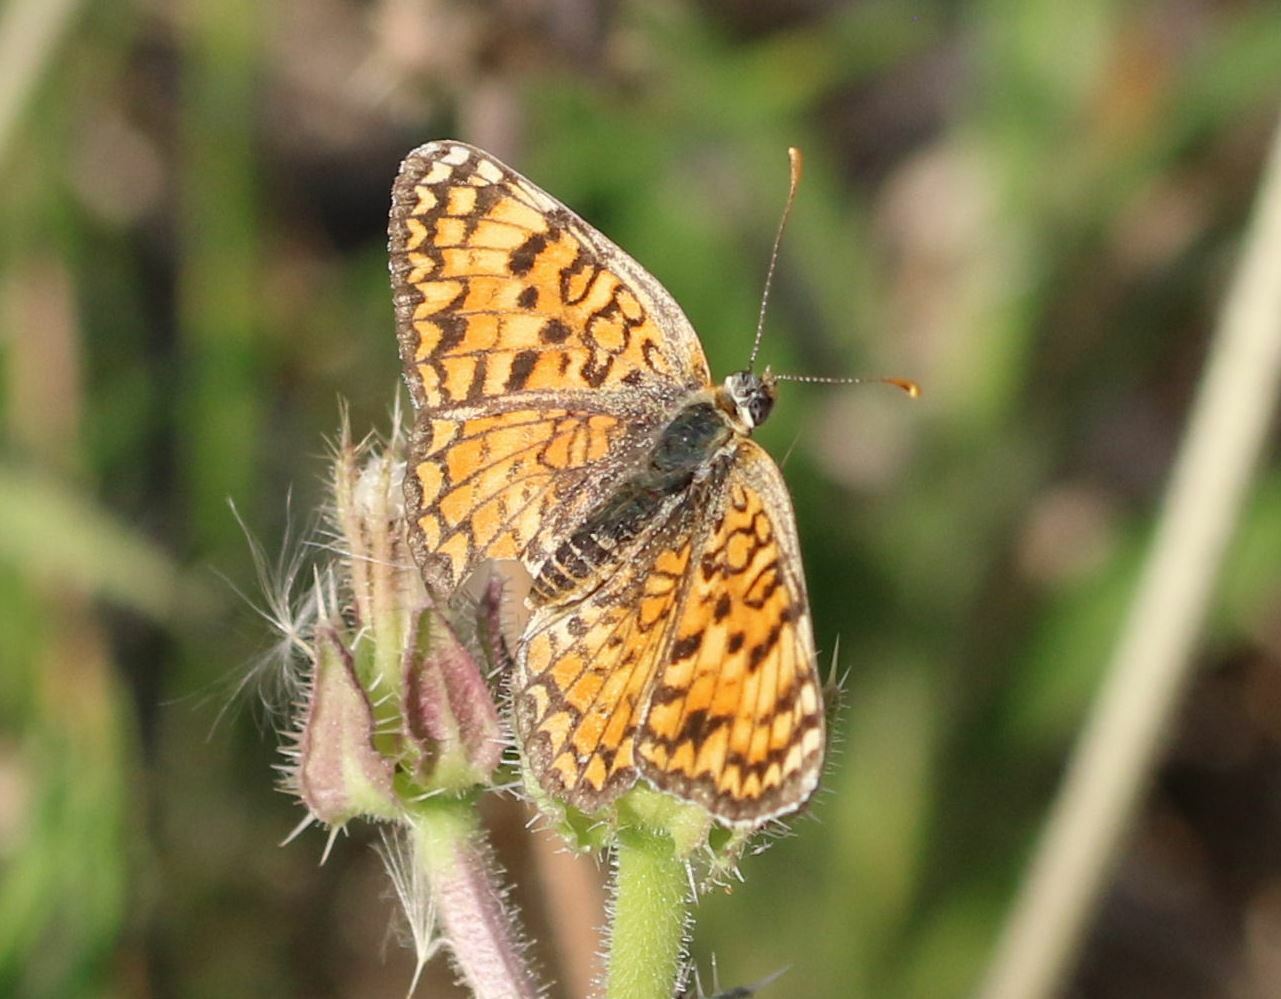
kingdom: Animalia
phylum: Arthropoda
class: Insecta
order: Lepidoptera
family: Nymphalidae
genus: Melitaea
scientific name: Melitaea phoebe
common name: Knapweed fritillary
